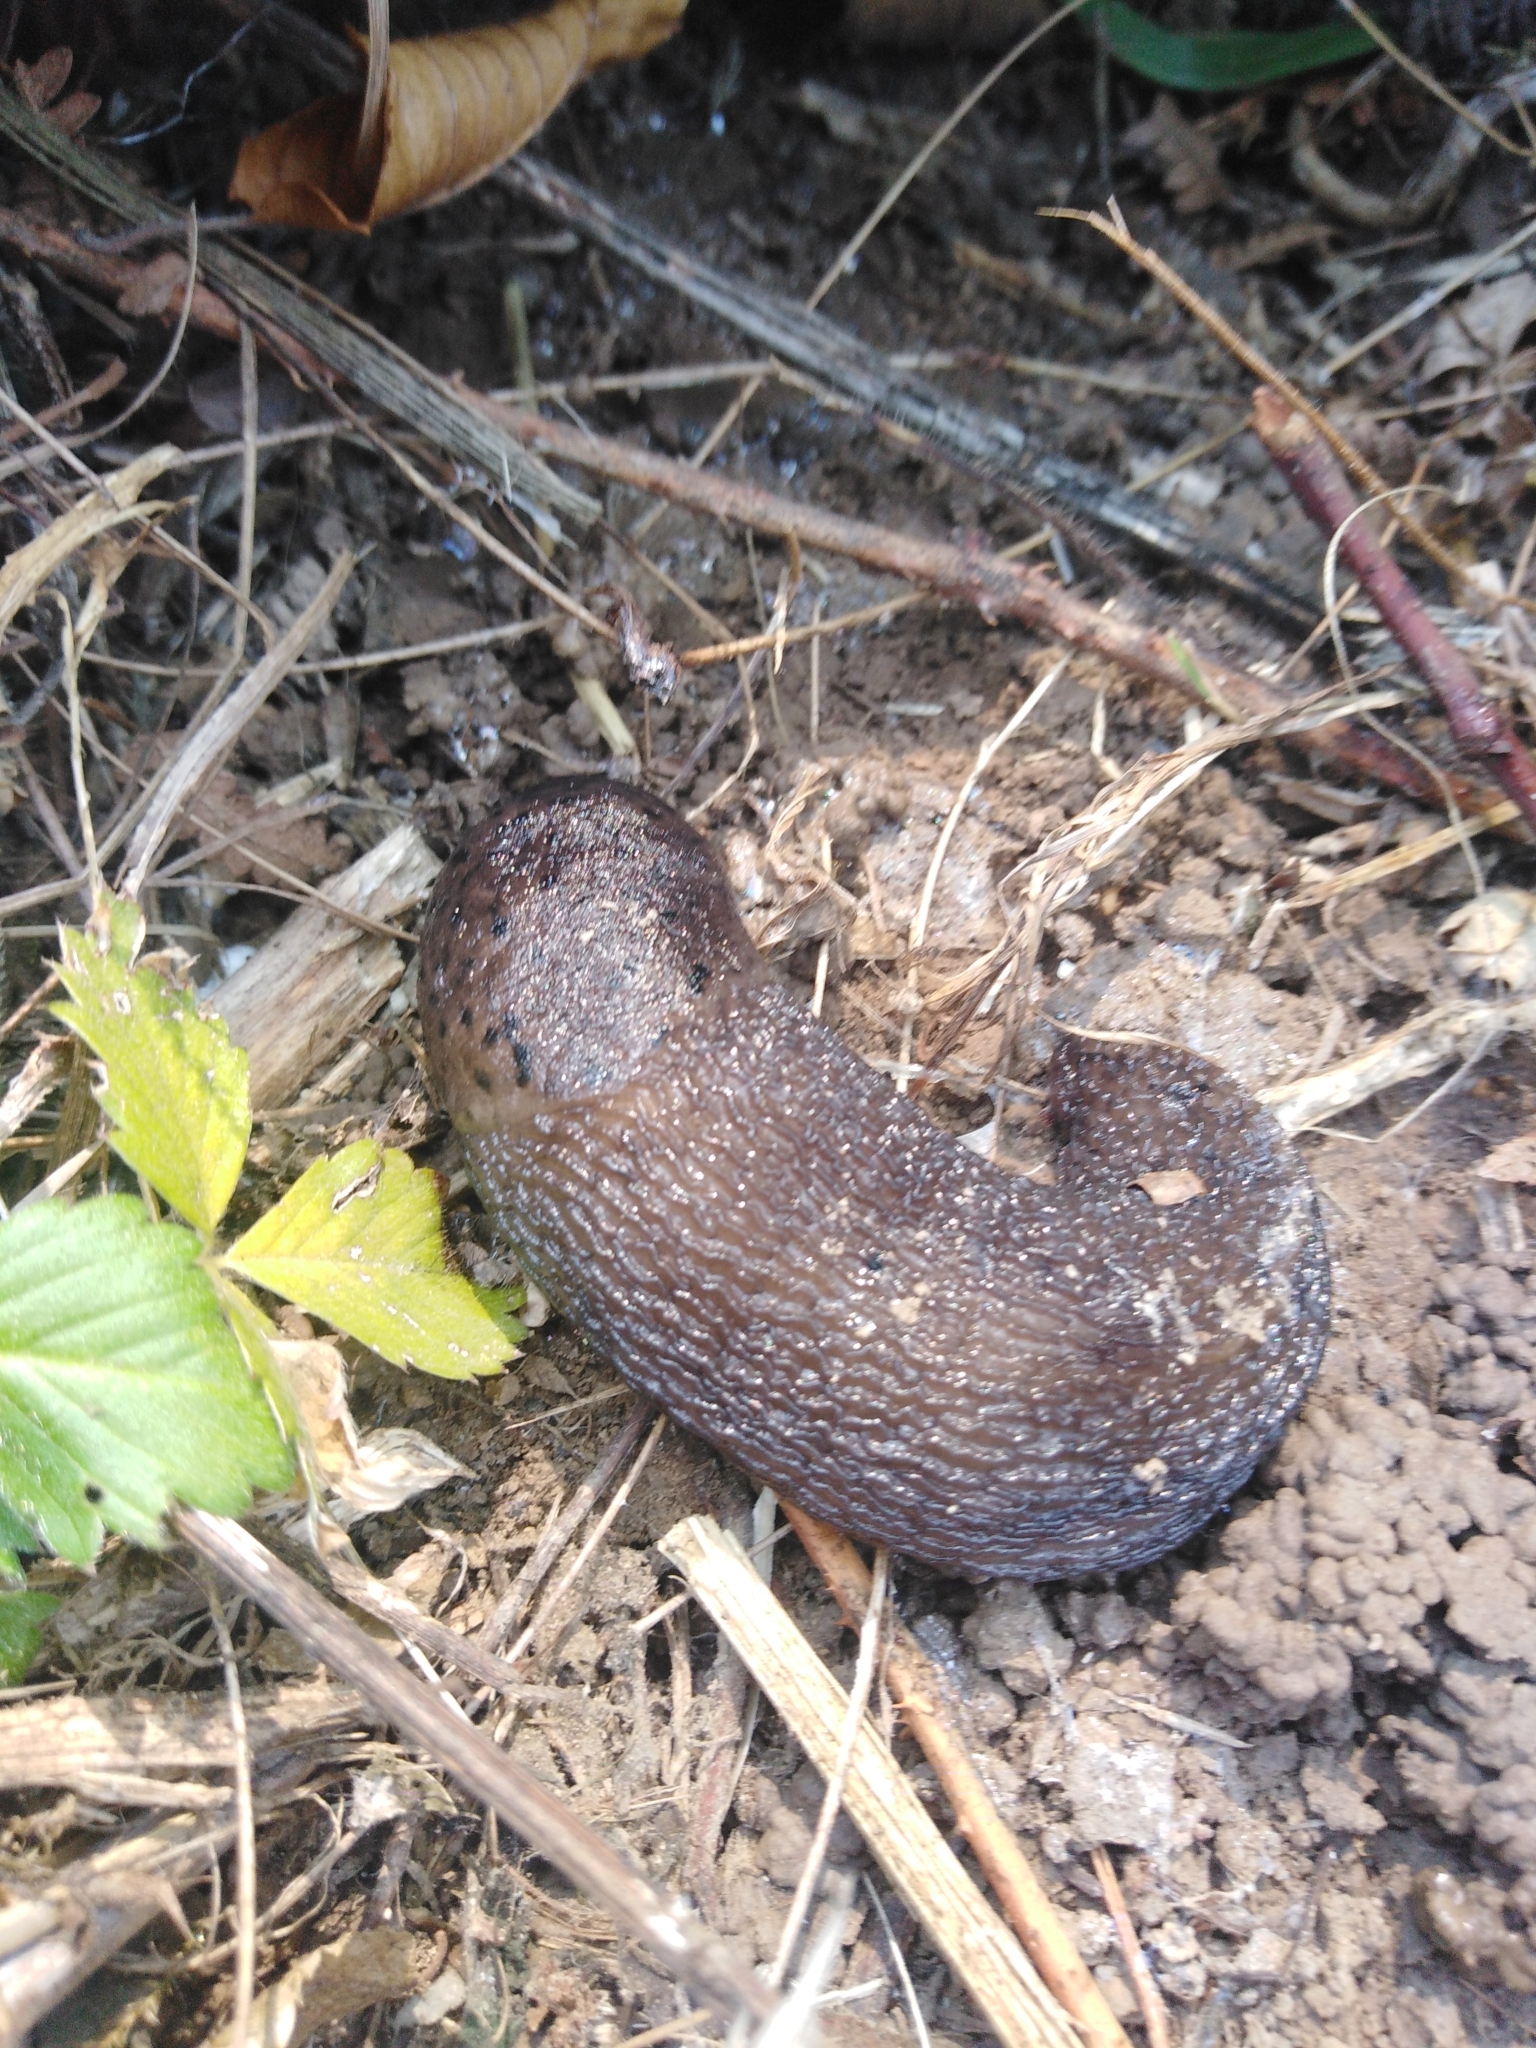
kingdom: Animalia
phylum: Mollusca
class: Gastropoda
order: Stylommatophora
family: Limacidae
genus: Limax
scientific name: Limax maximus
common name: Great grey slug
